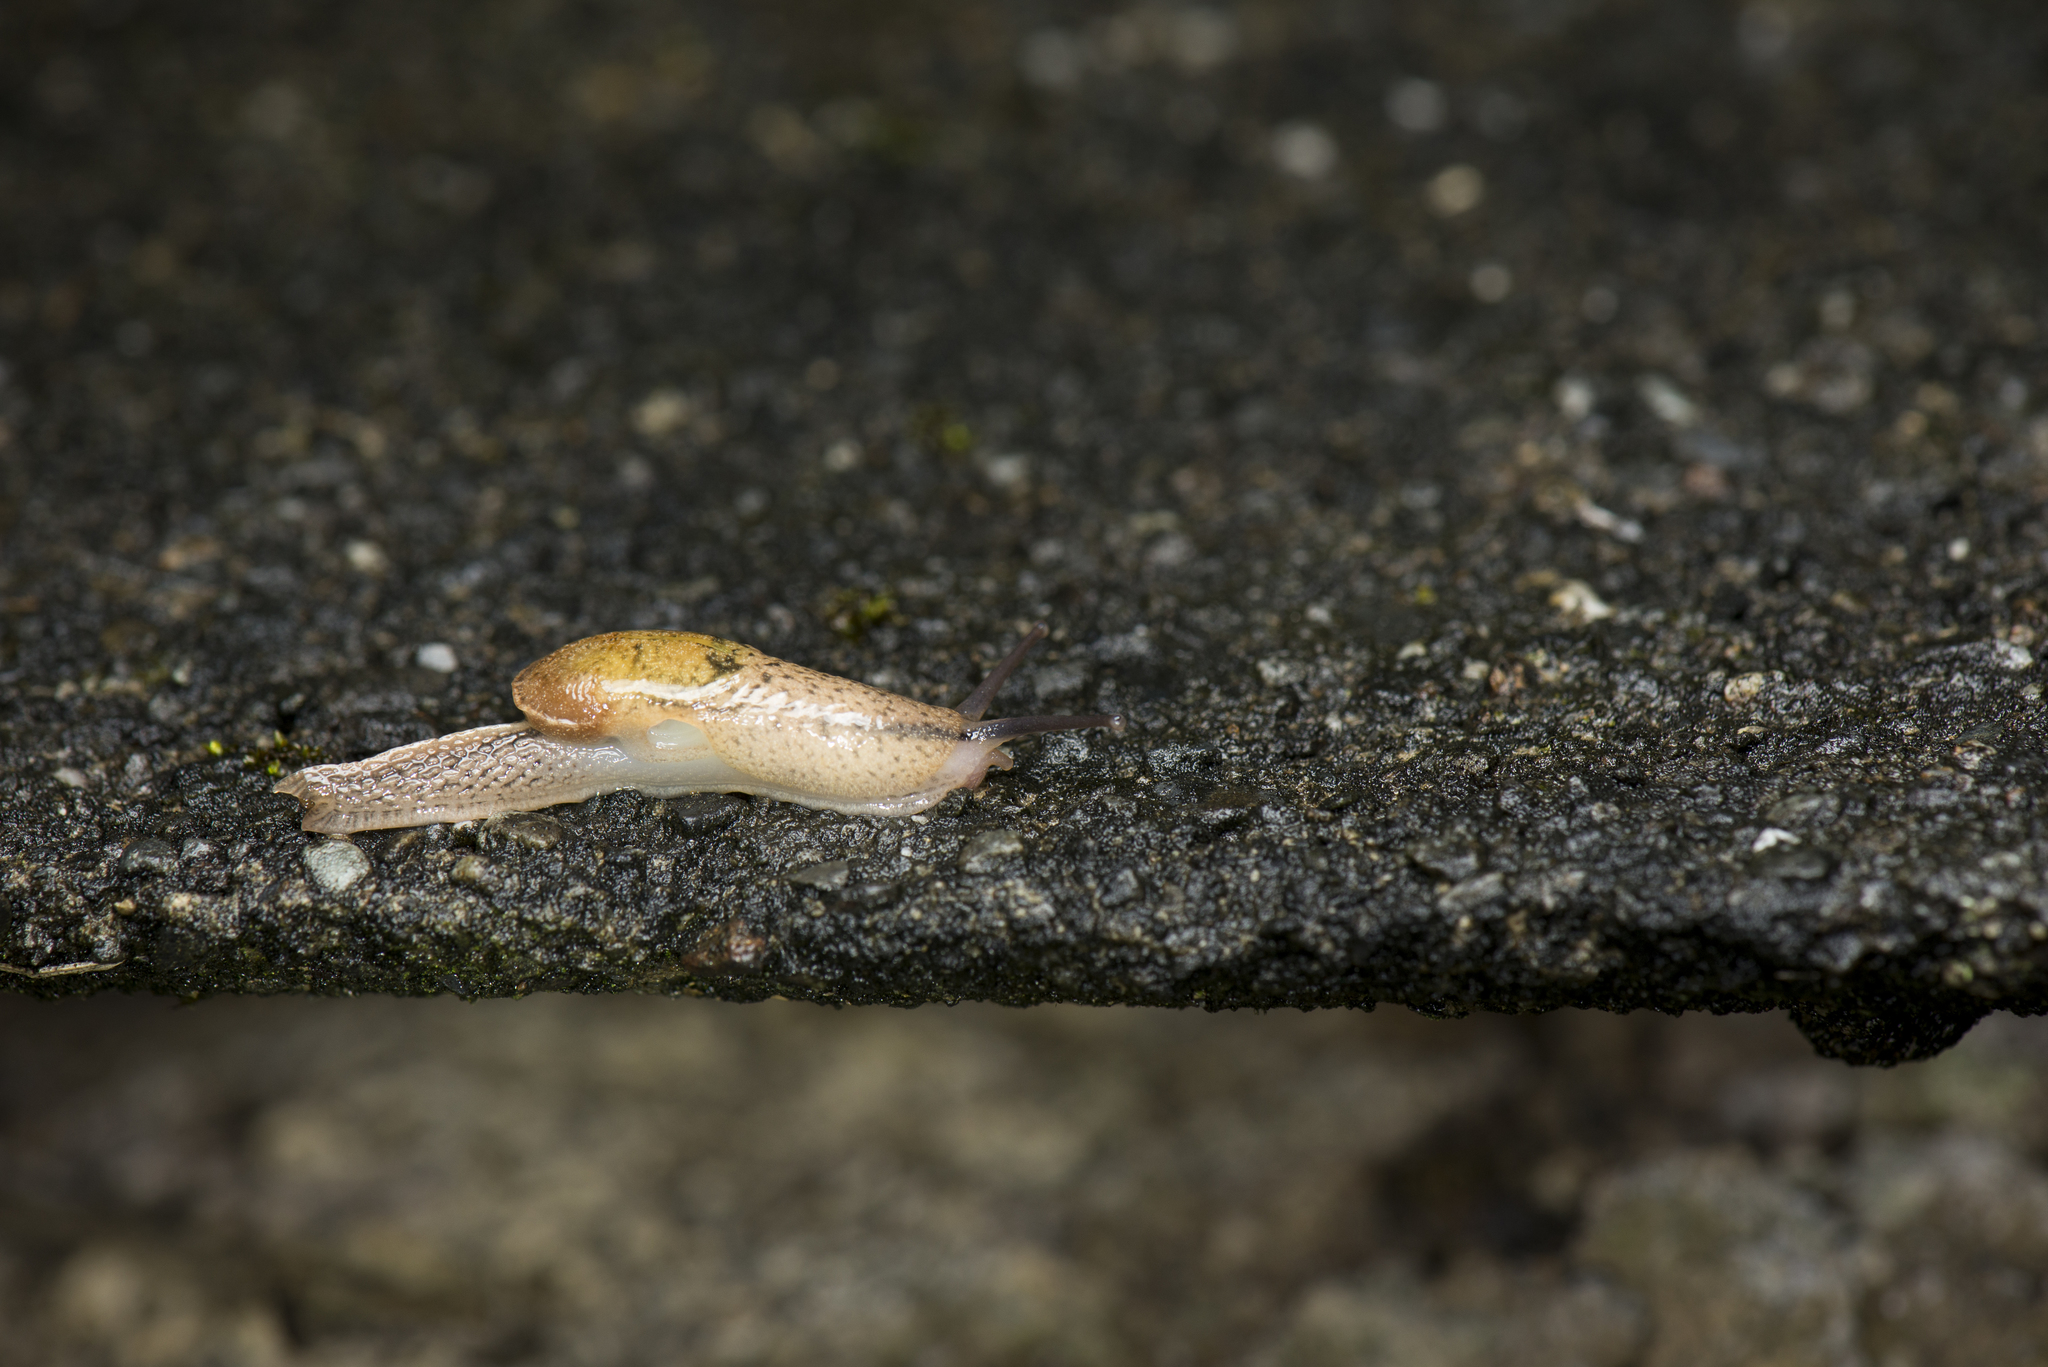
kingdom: Animalia
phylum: Mollusca
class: Gastropoda
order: Stylommatophora
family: Ariophantidae
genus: Parmarion
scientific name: Parmarion martensi
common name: Semi-slug
